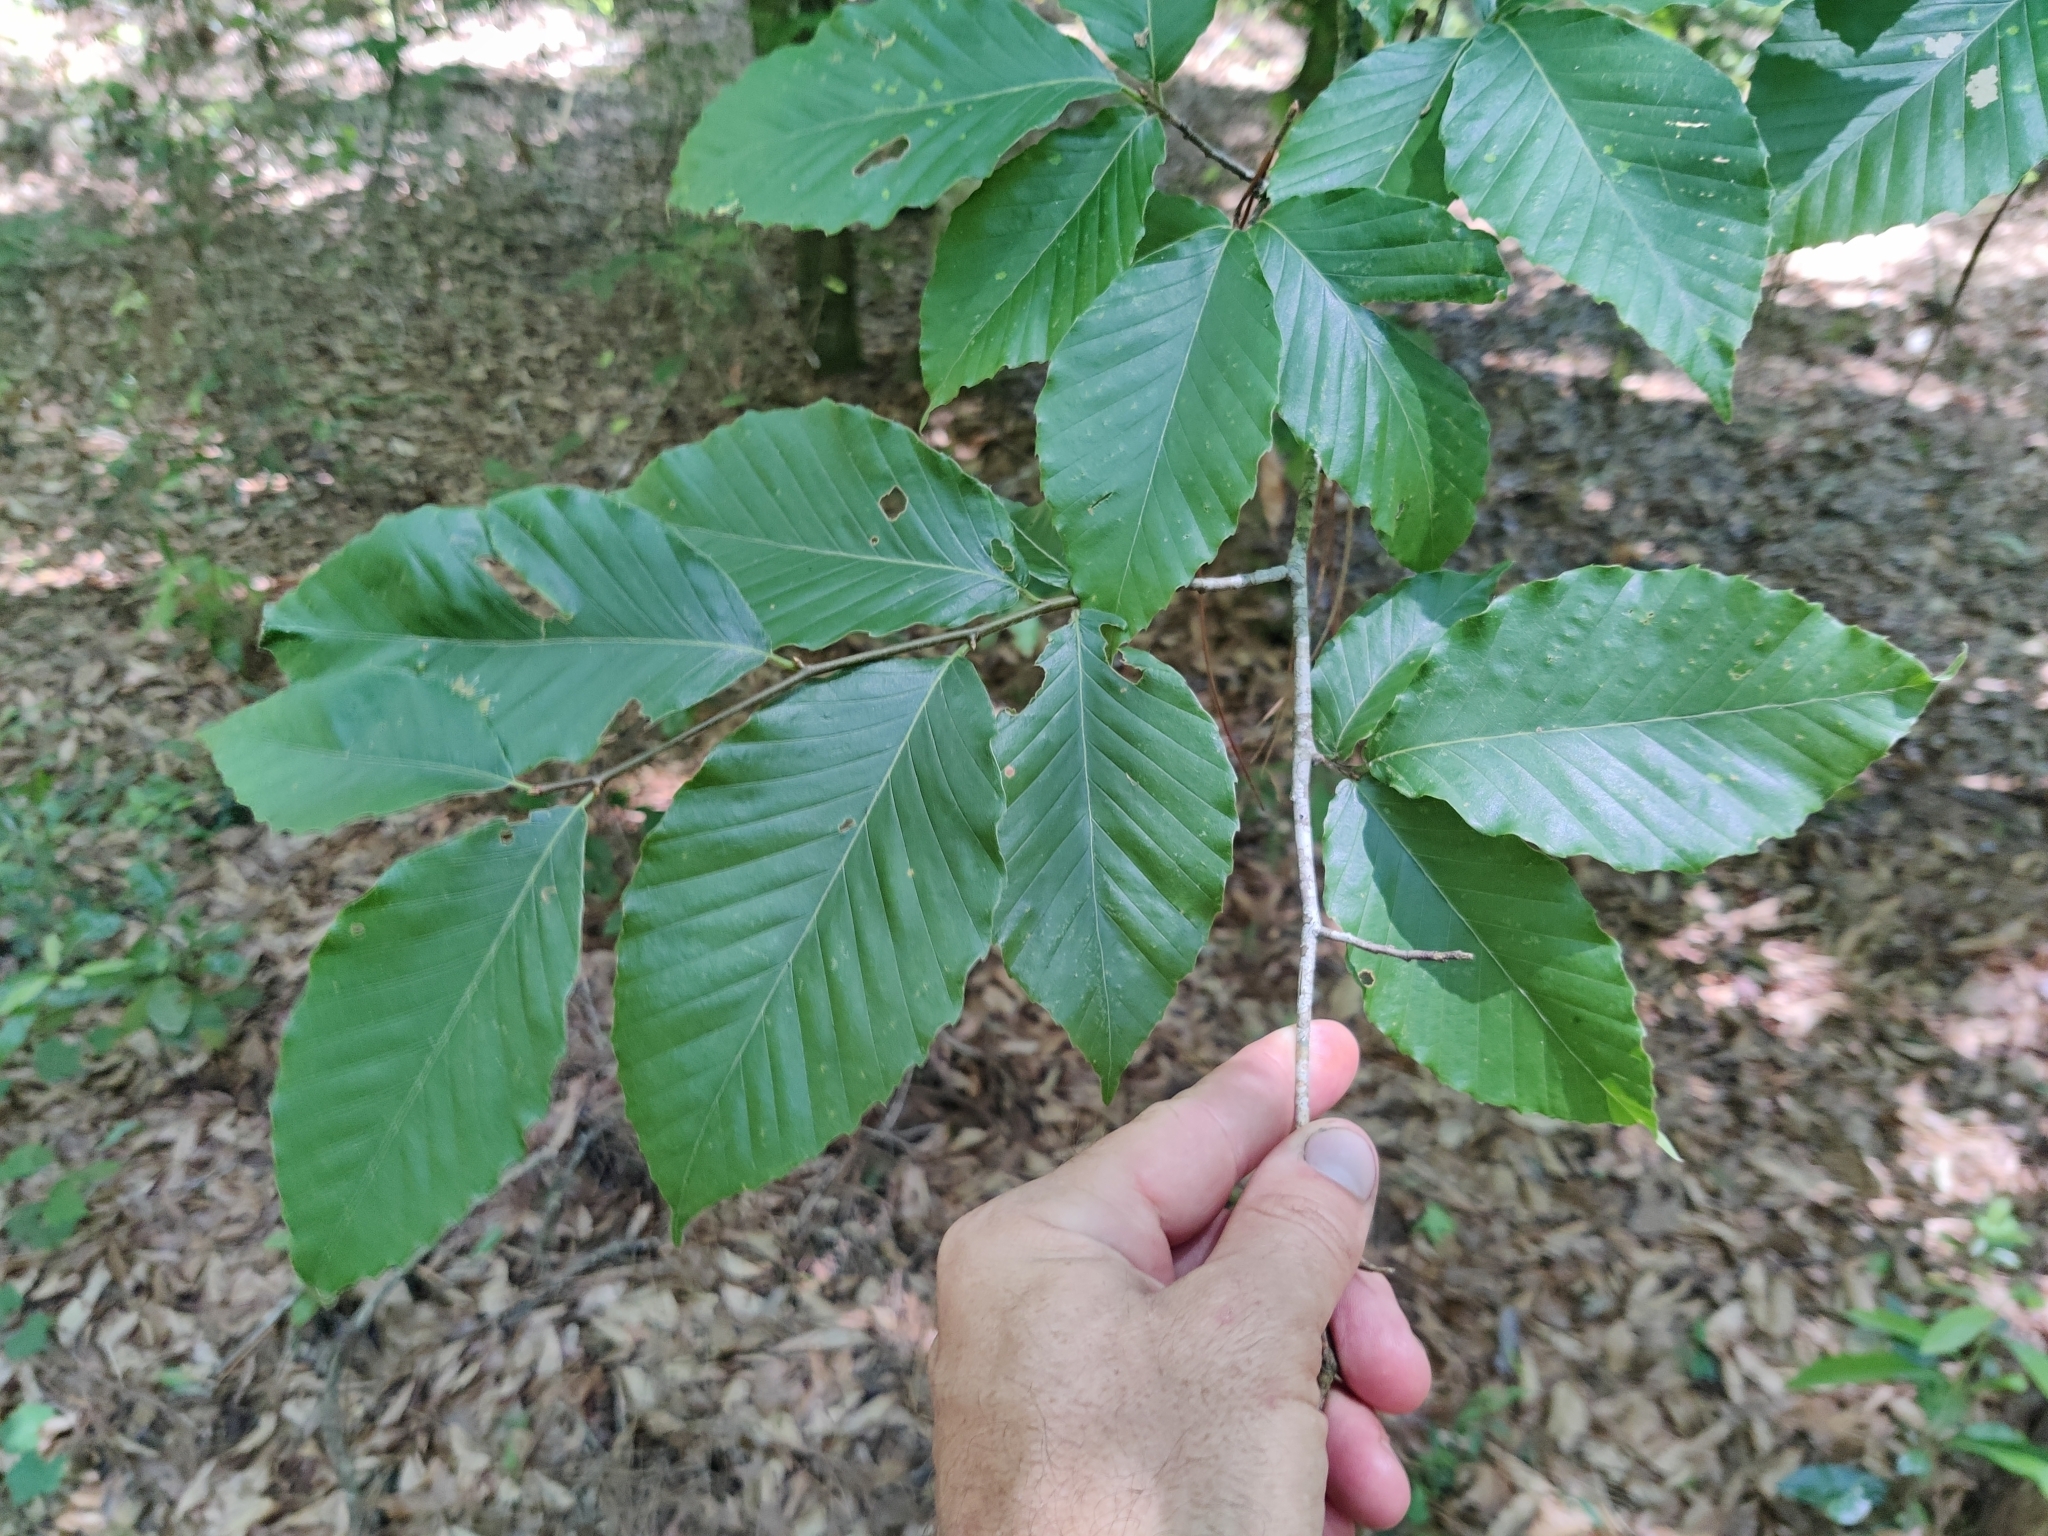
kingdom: Plantae
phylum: Tracheophyta
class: Magnoliopsida
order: Fagales
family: Fagaceae
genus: Fagus
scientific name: Fagus grandifolia
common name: American beech
